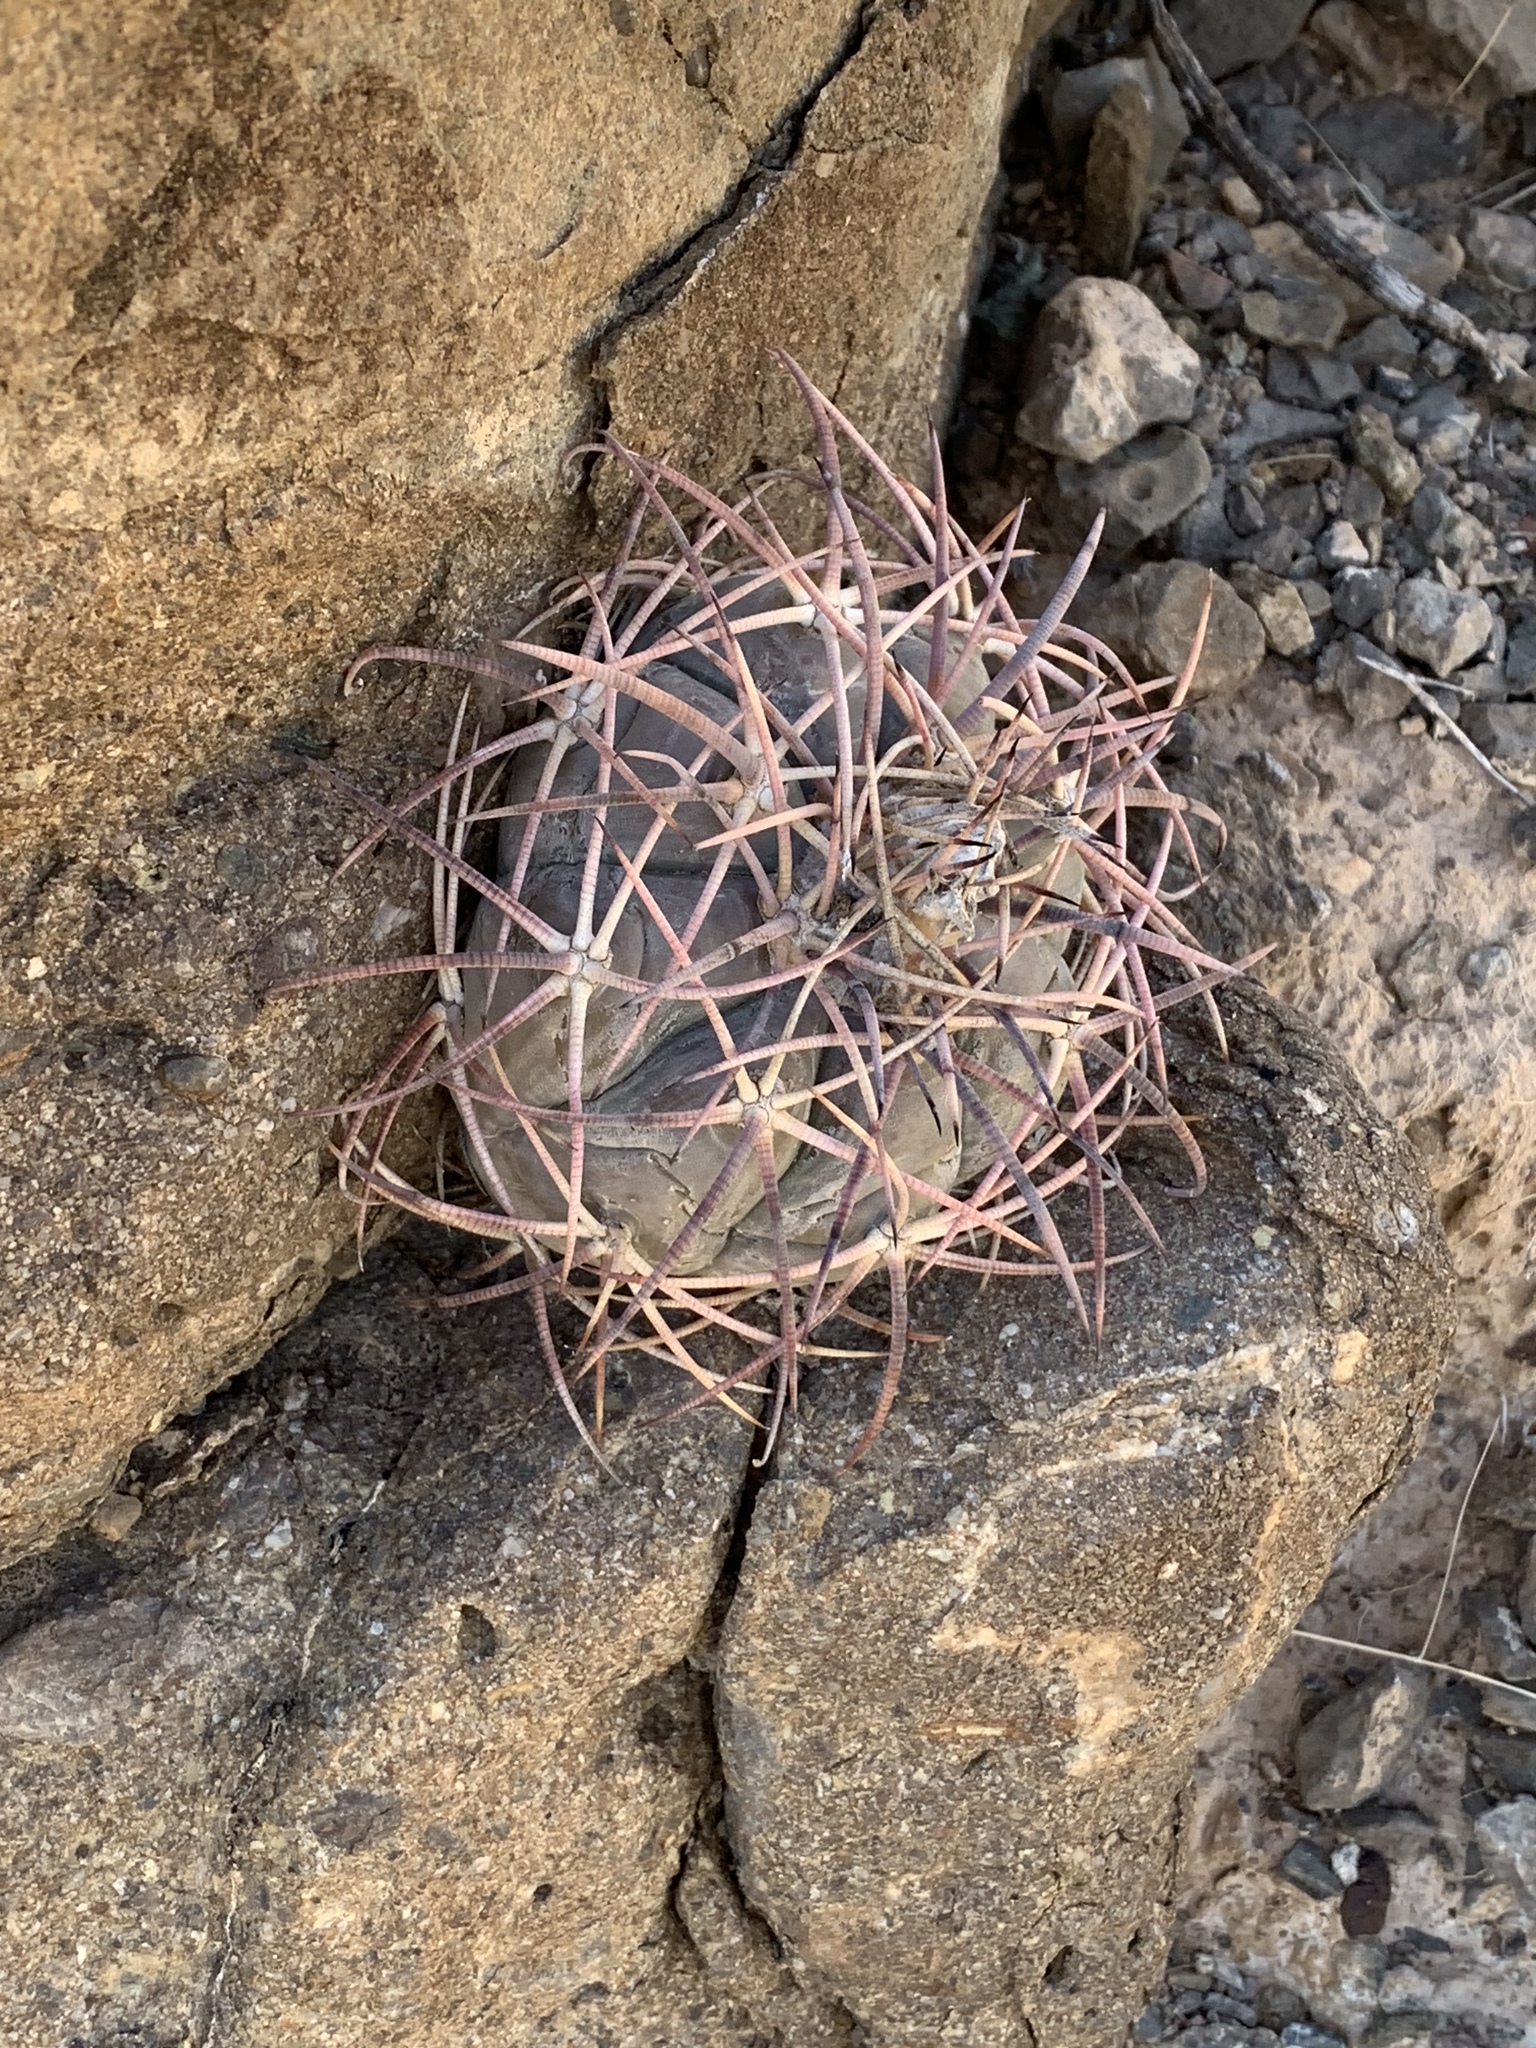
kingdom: Plantae
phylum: Tracheophyta
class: Magnoliopsida
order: Caryophyllales
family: Cactaceae
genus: Echinocactus
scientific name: Echinocactus horizonthalonius
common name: Devilshead
